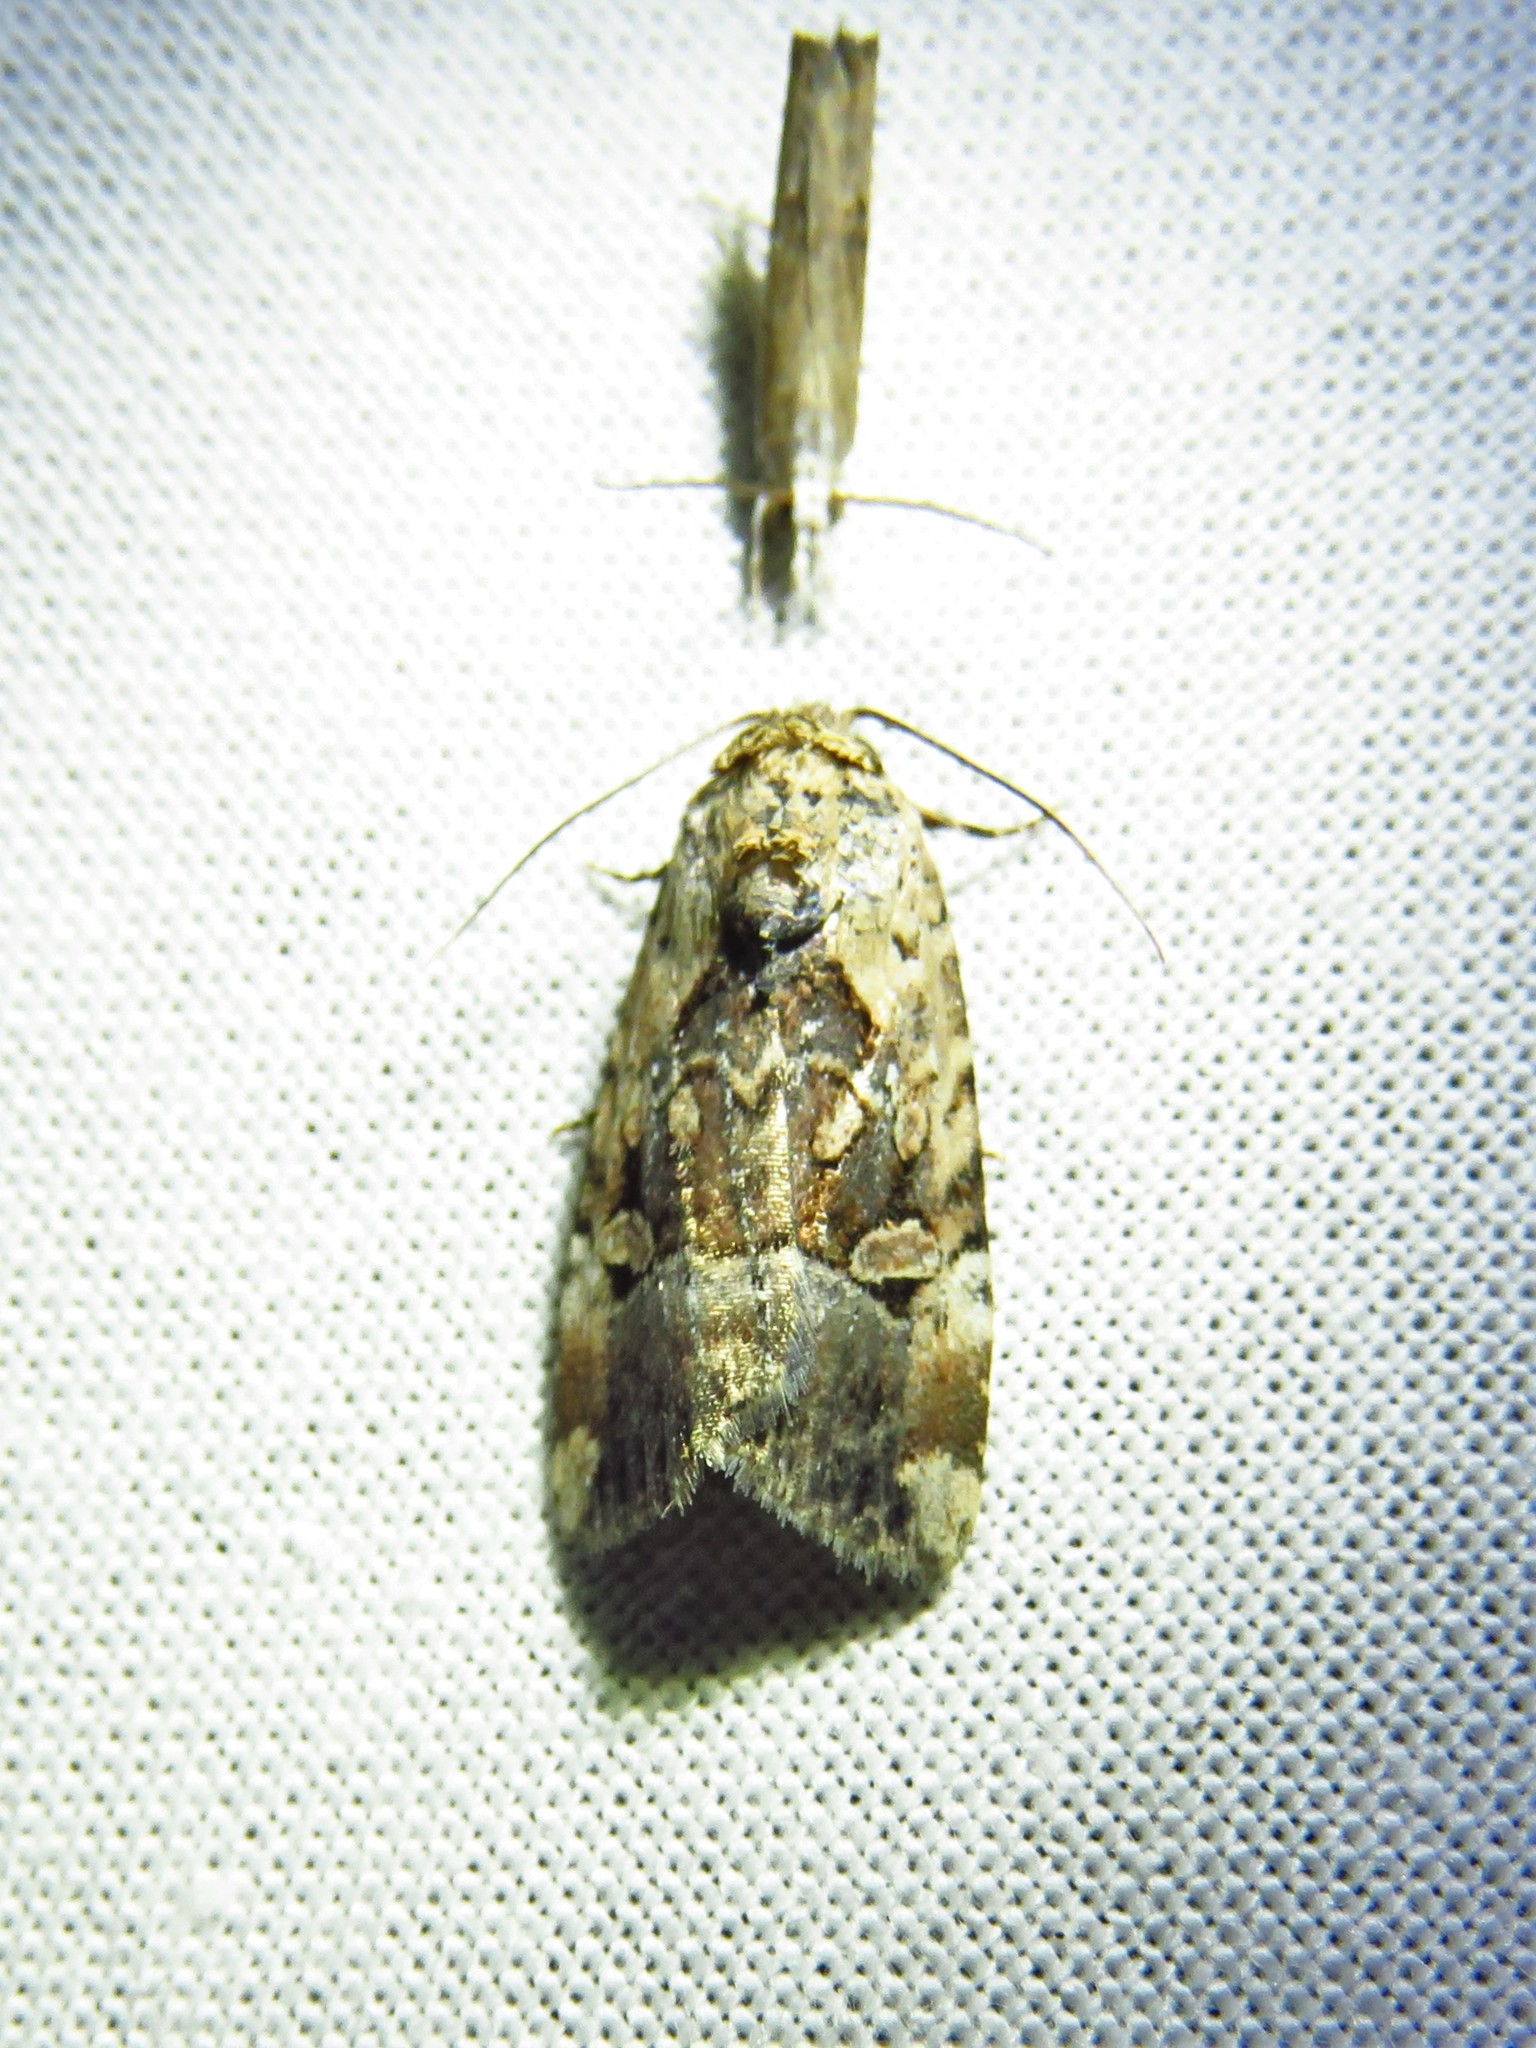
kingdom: Animalia
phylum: Arthropoda
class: Insecta
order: Lepidoptera
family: Noctuidae
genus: Elaphria
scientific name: Elaphria chalcedonia
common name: Chalcedony midget
